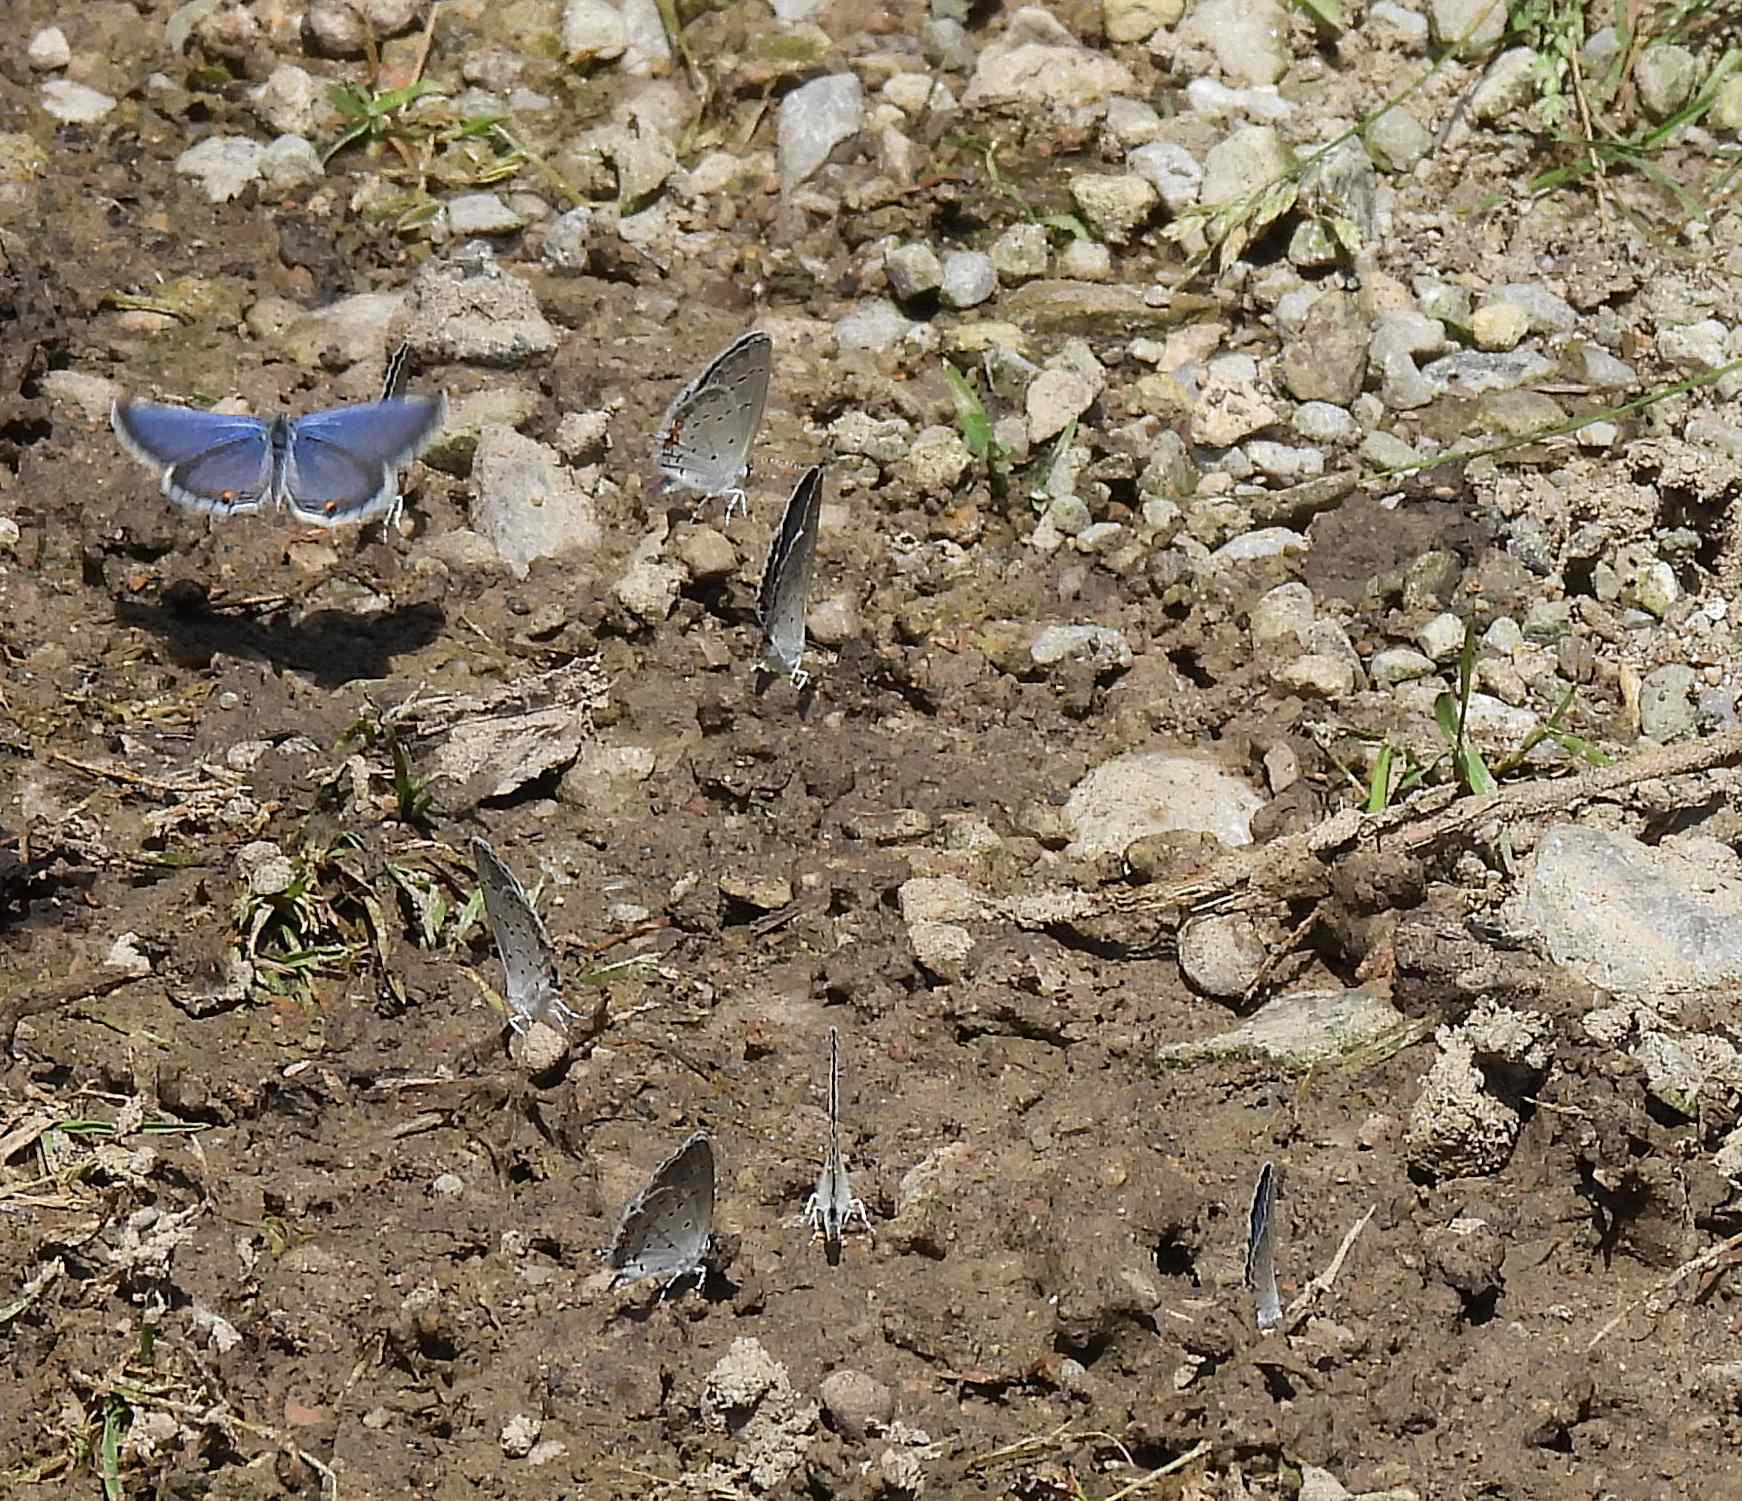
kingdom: Animalia
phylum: Arthropoda
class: Insecta
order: Lepidoptera
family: Lycaenidae
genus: Elkalyce
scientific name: Elkalyce comyntas
